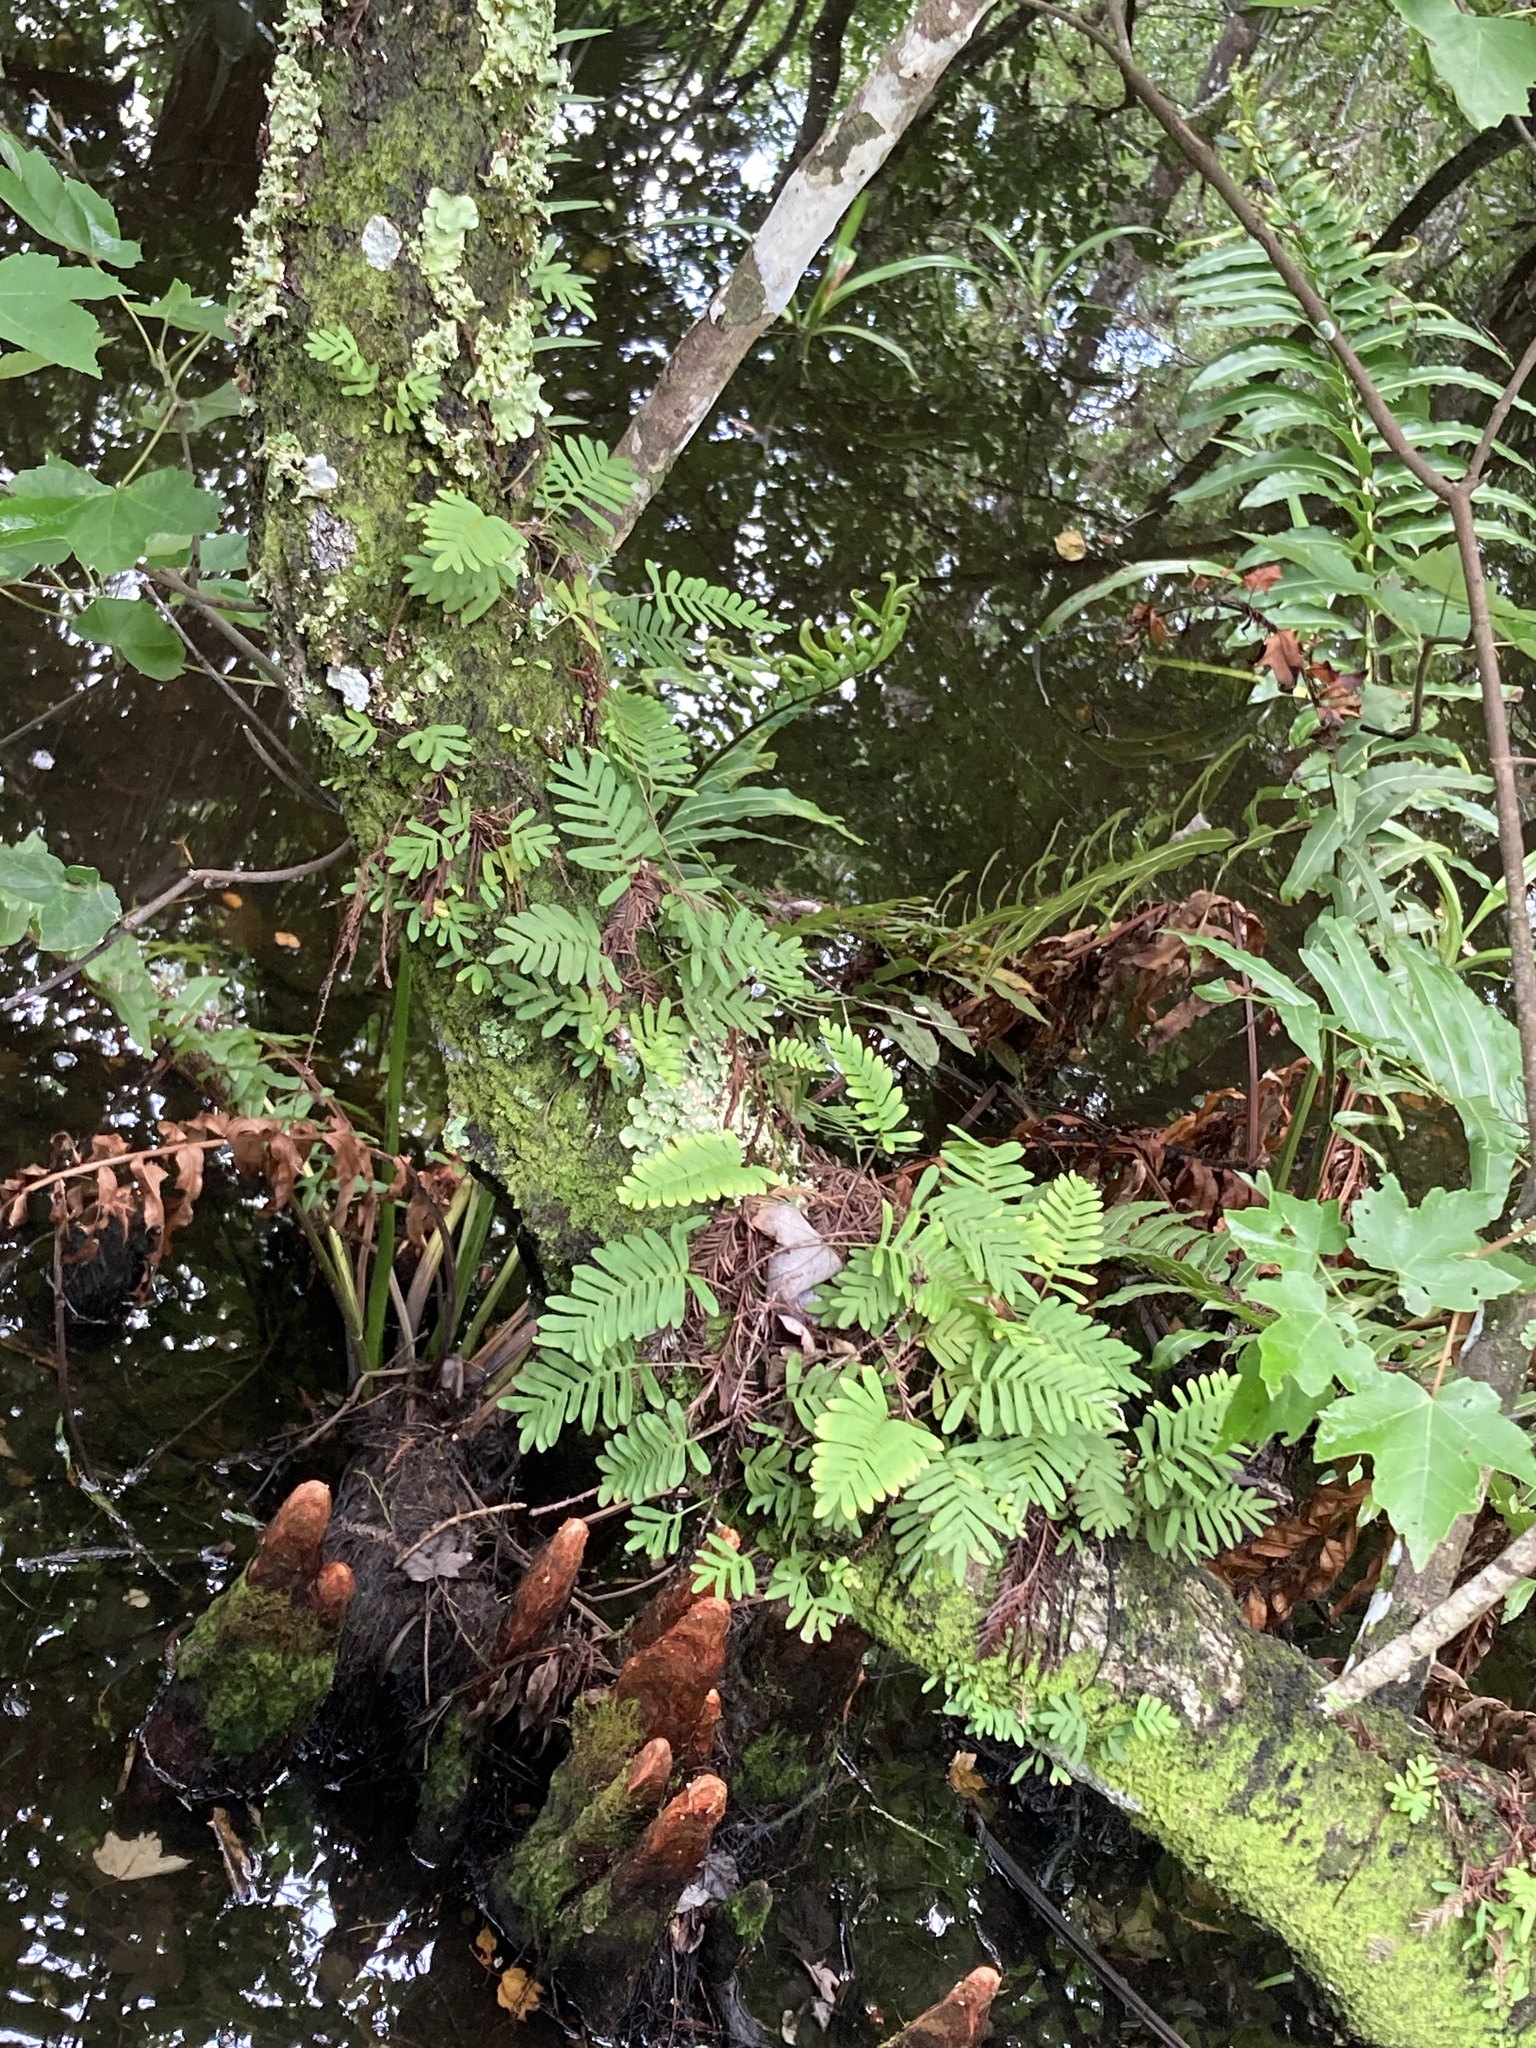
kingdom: Plantae
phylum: Tracheophyta
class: Polypodiopsida
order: Polypodiales
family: Polypodiaceae
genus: Pleopeltis
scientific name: Pleopeltis michauxiana
